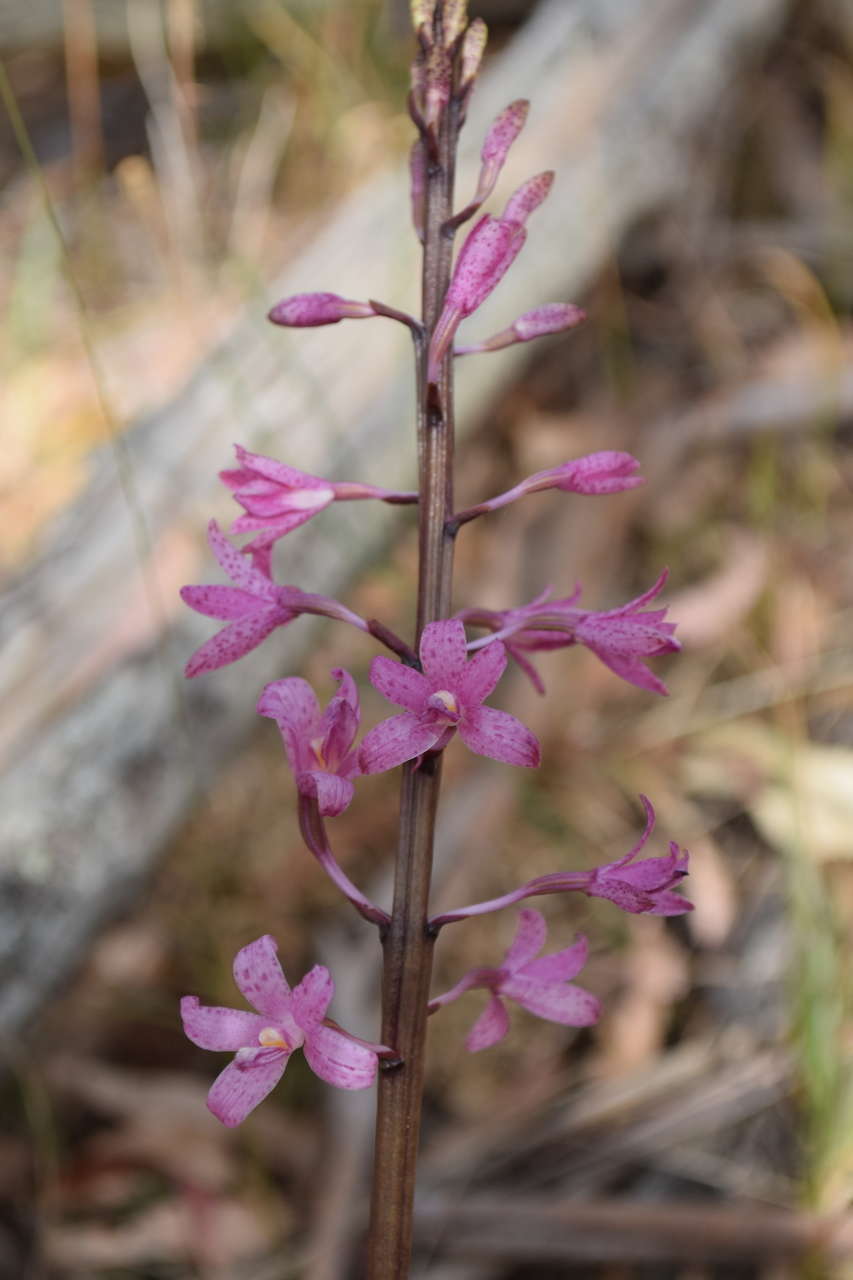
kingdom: Plantae
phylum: Tracheophyta
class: Liliopsida
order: Asparagales
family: Orchidaceae
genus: Dipodium
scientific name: Dipodium roseum
